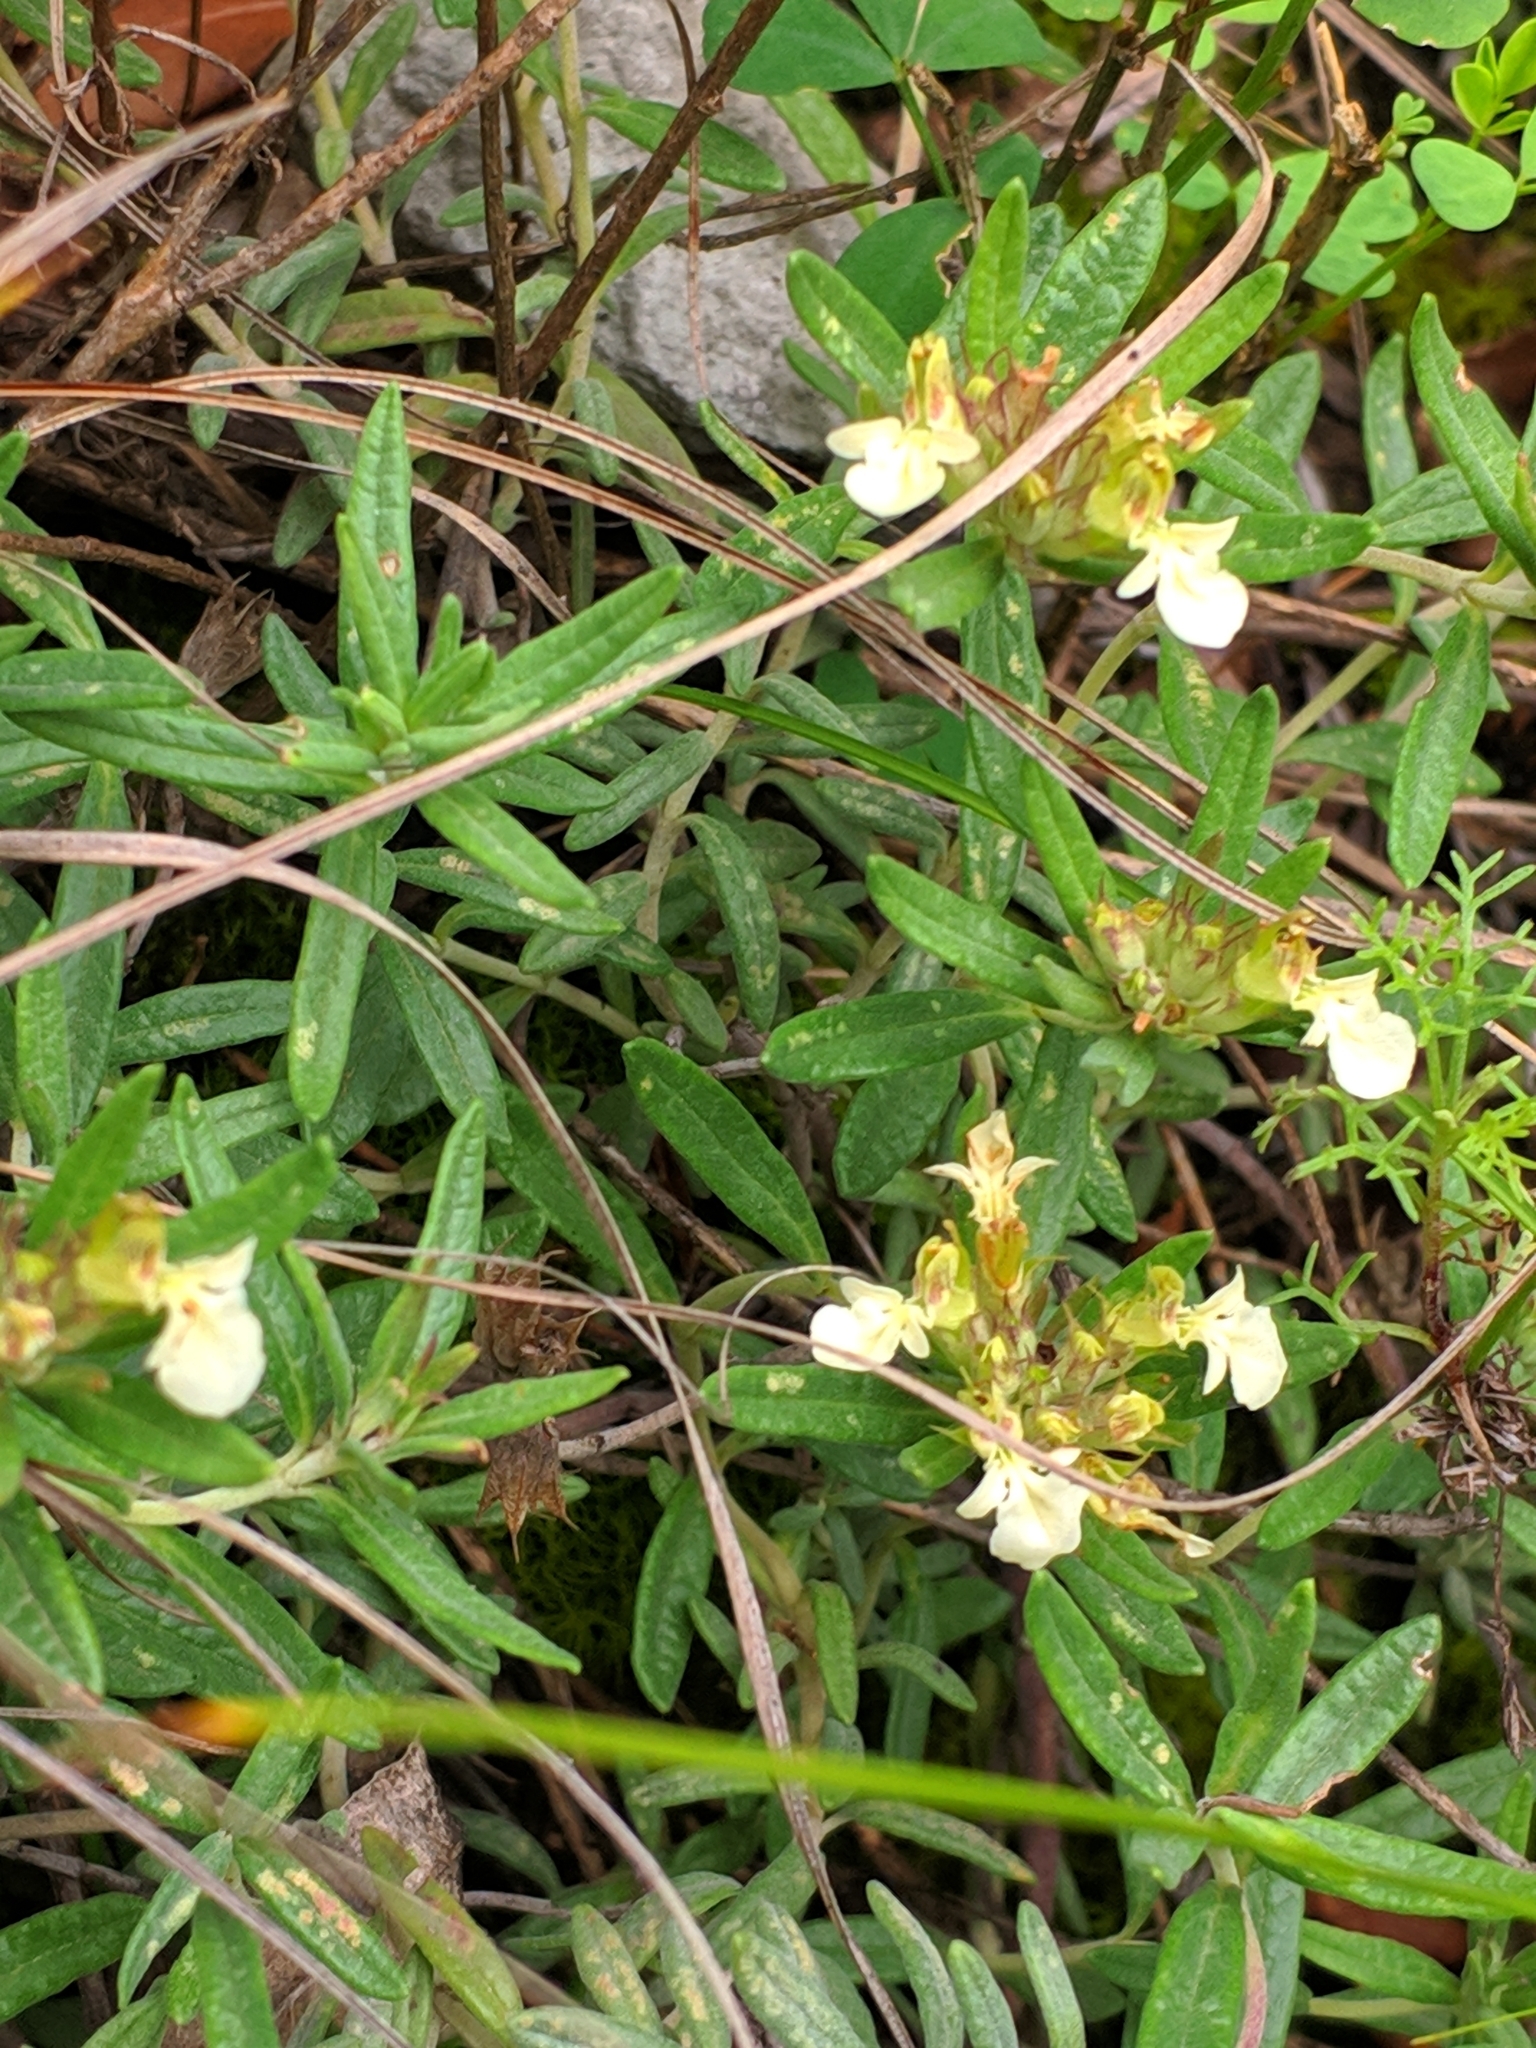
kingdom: Plantae
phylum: Tracheophyta
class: Magnoliopsida
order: Lamiales
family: Lamiaceae
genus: Teucrium
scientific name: Teucrium montanum
